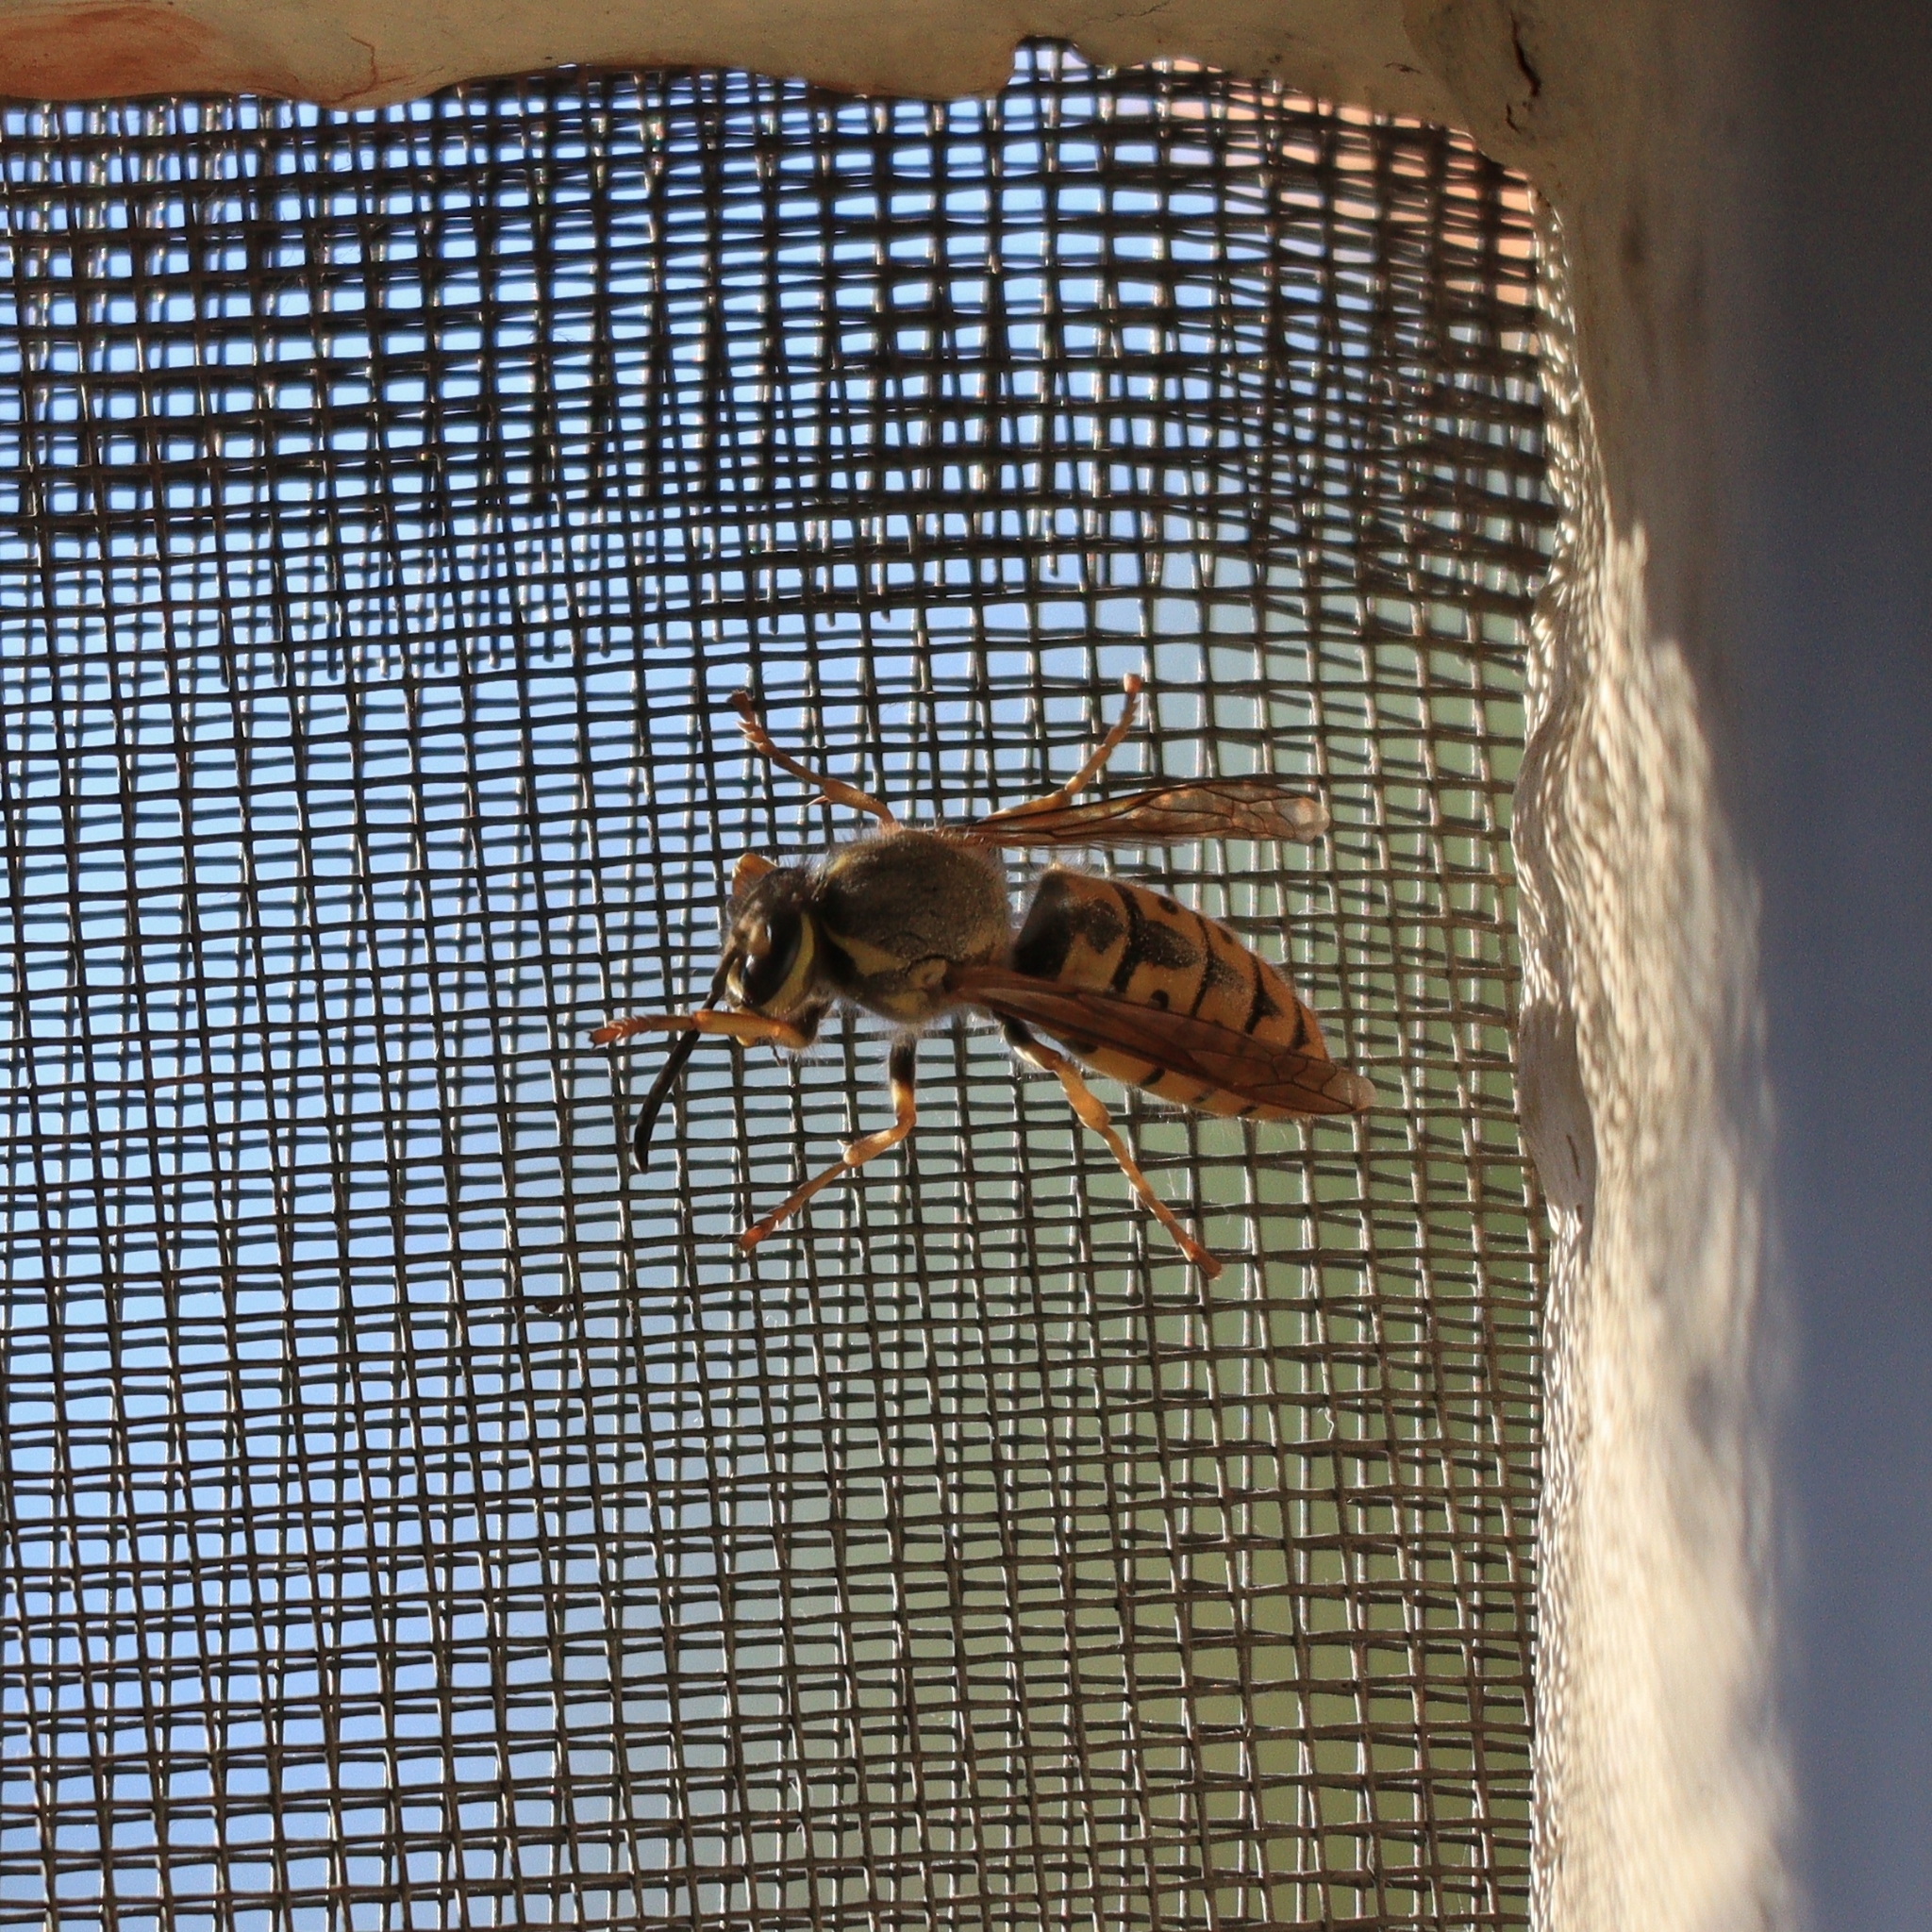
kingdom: Animalia
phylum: Arthropoda
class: Insecta
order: Hymenoptera
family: Vespidae
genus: Vespula
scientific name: Vespula germanica
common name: German wasp
